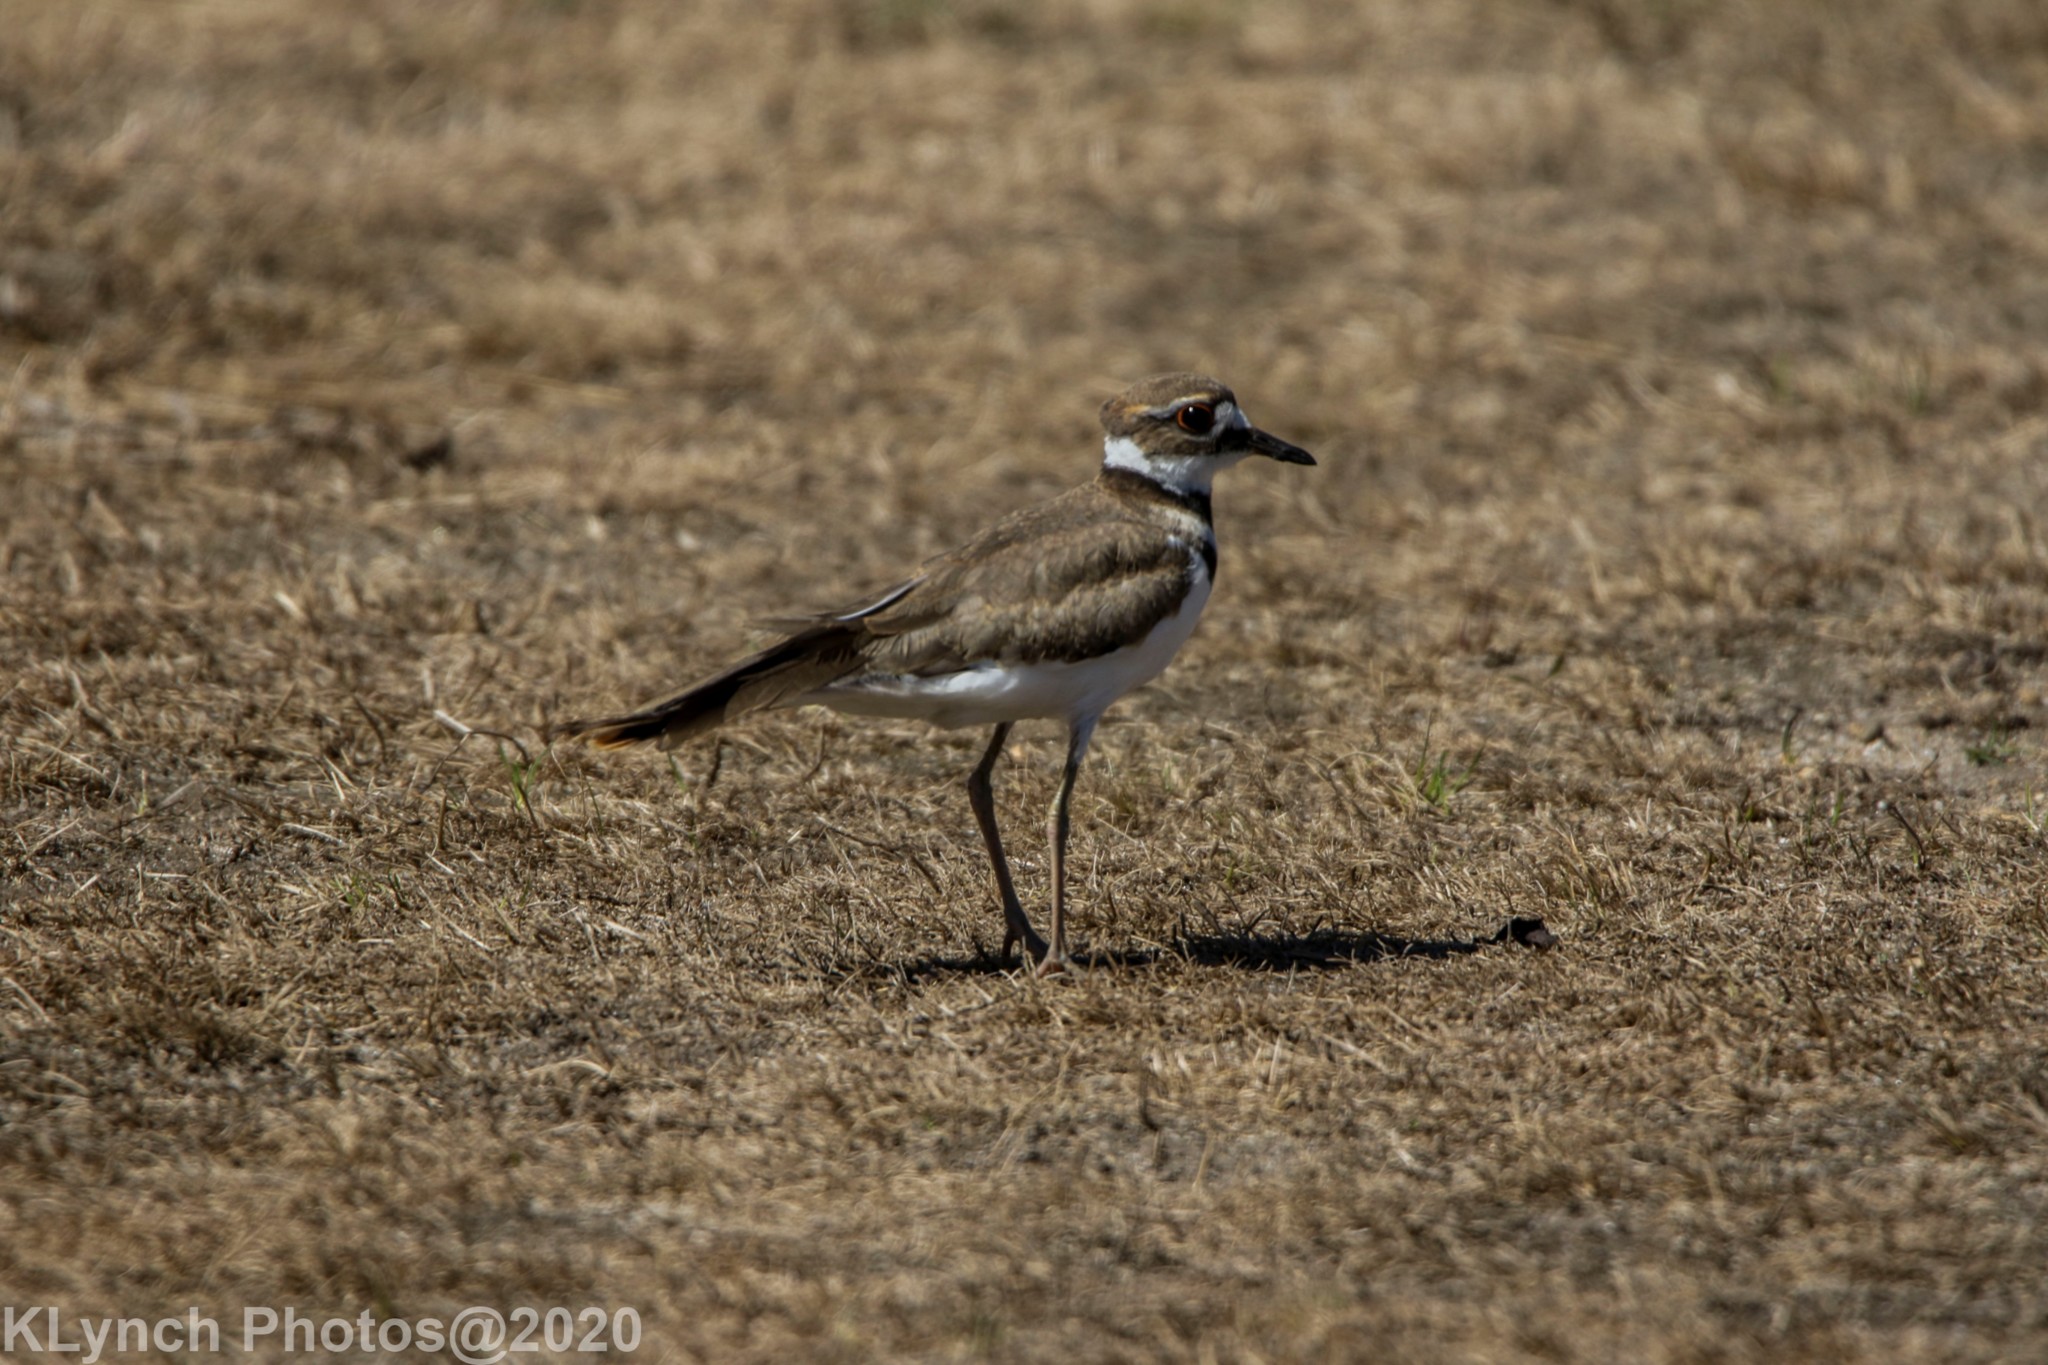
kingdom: Animalia
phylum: Chordata
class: Aves
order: Charadriiformes
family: Charadriidae
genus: Charadrius
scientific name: Charadrius vociferus
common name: Killdeer
